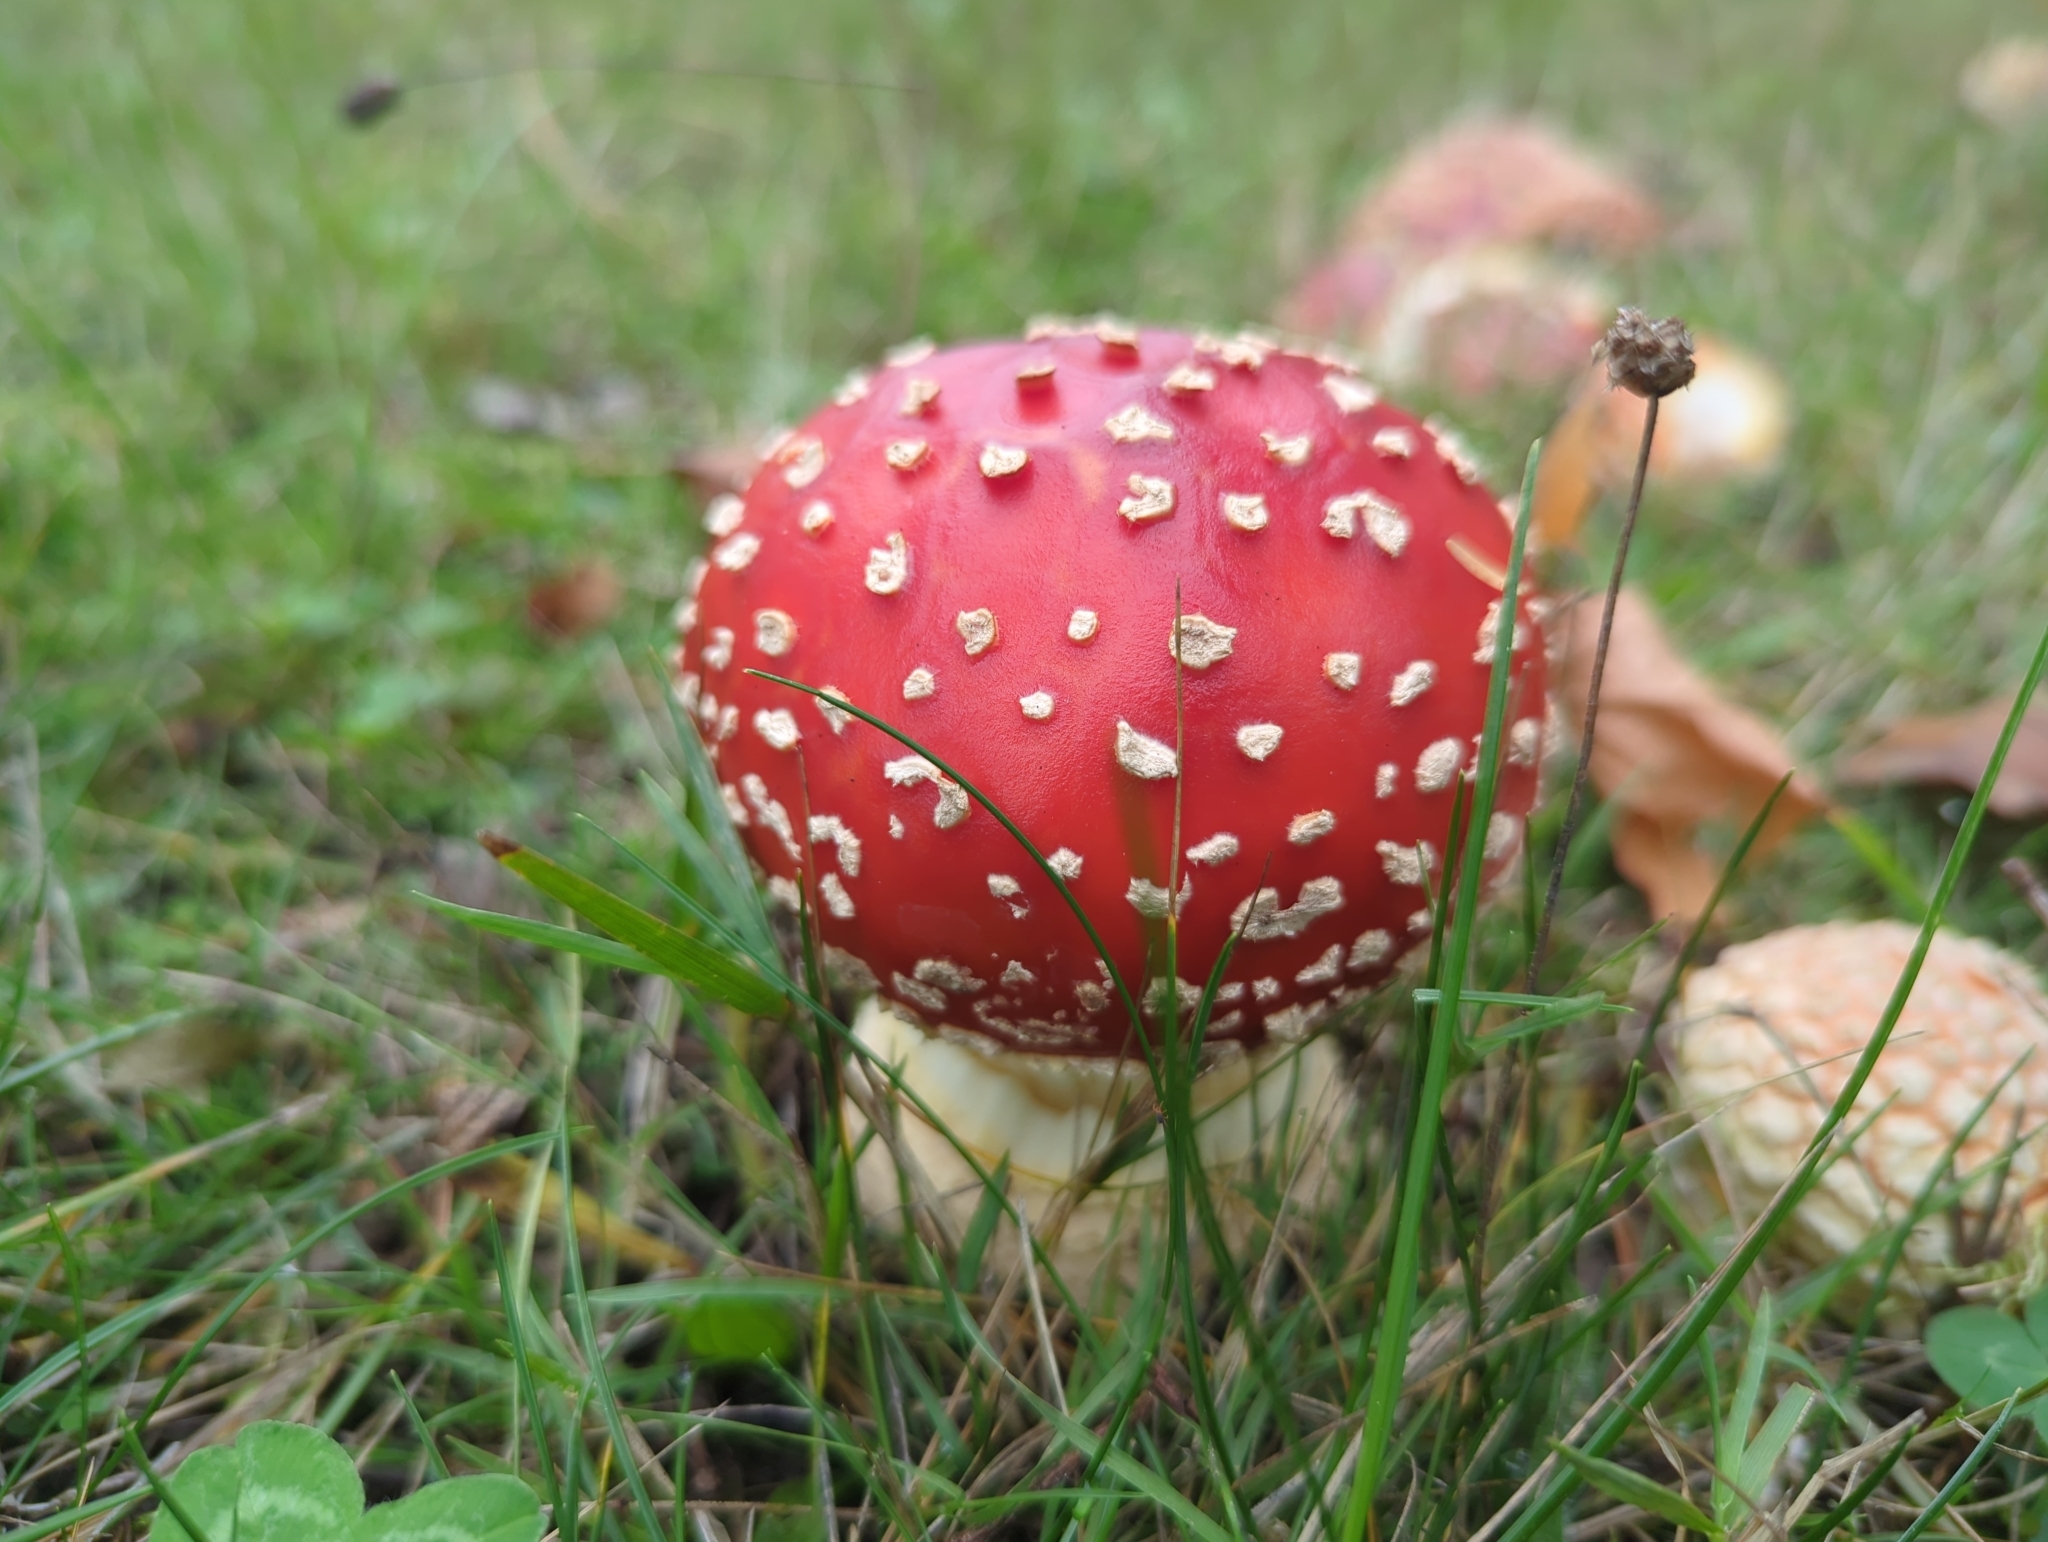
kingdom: Fungi
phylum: Basidiomycota
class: Agaricomycetes
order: Agaricales
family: Amanitaceae
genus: Amanita
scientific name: Amanita muscaria
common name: Fly agaric
